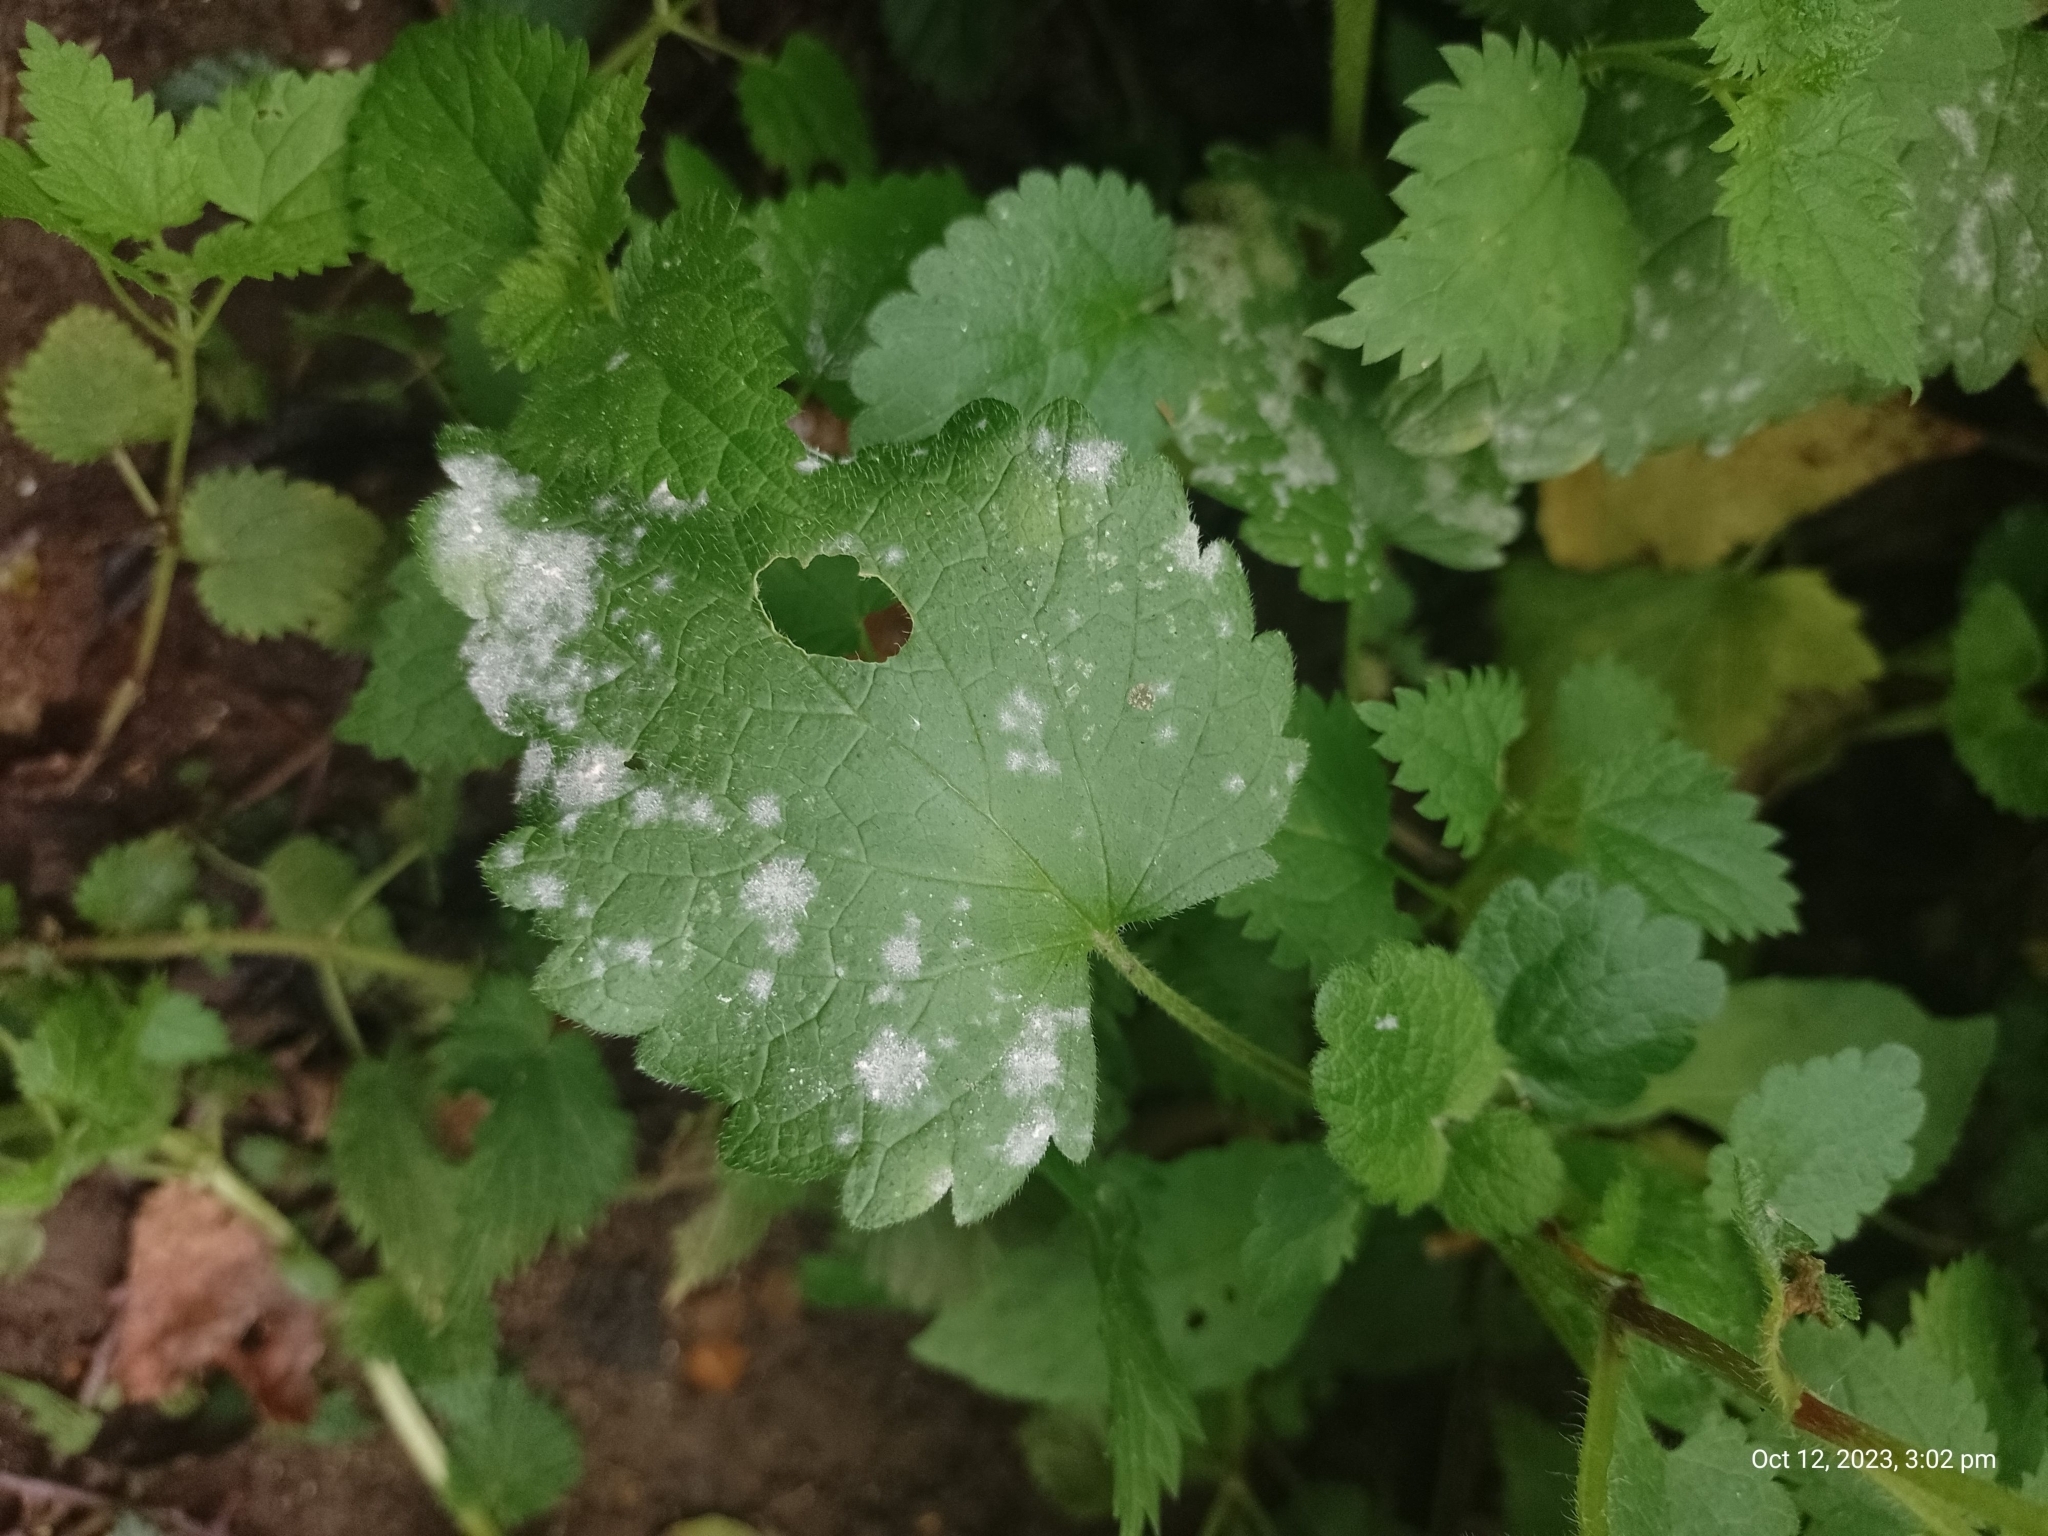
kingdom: Fungi
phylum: Ascomycota
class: Leotiomycetes
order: Helotiales
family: Erysiphaceae
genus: Neoerysiphe
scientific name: Neoerysiphe galeopsidis
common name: Mint mildew
